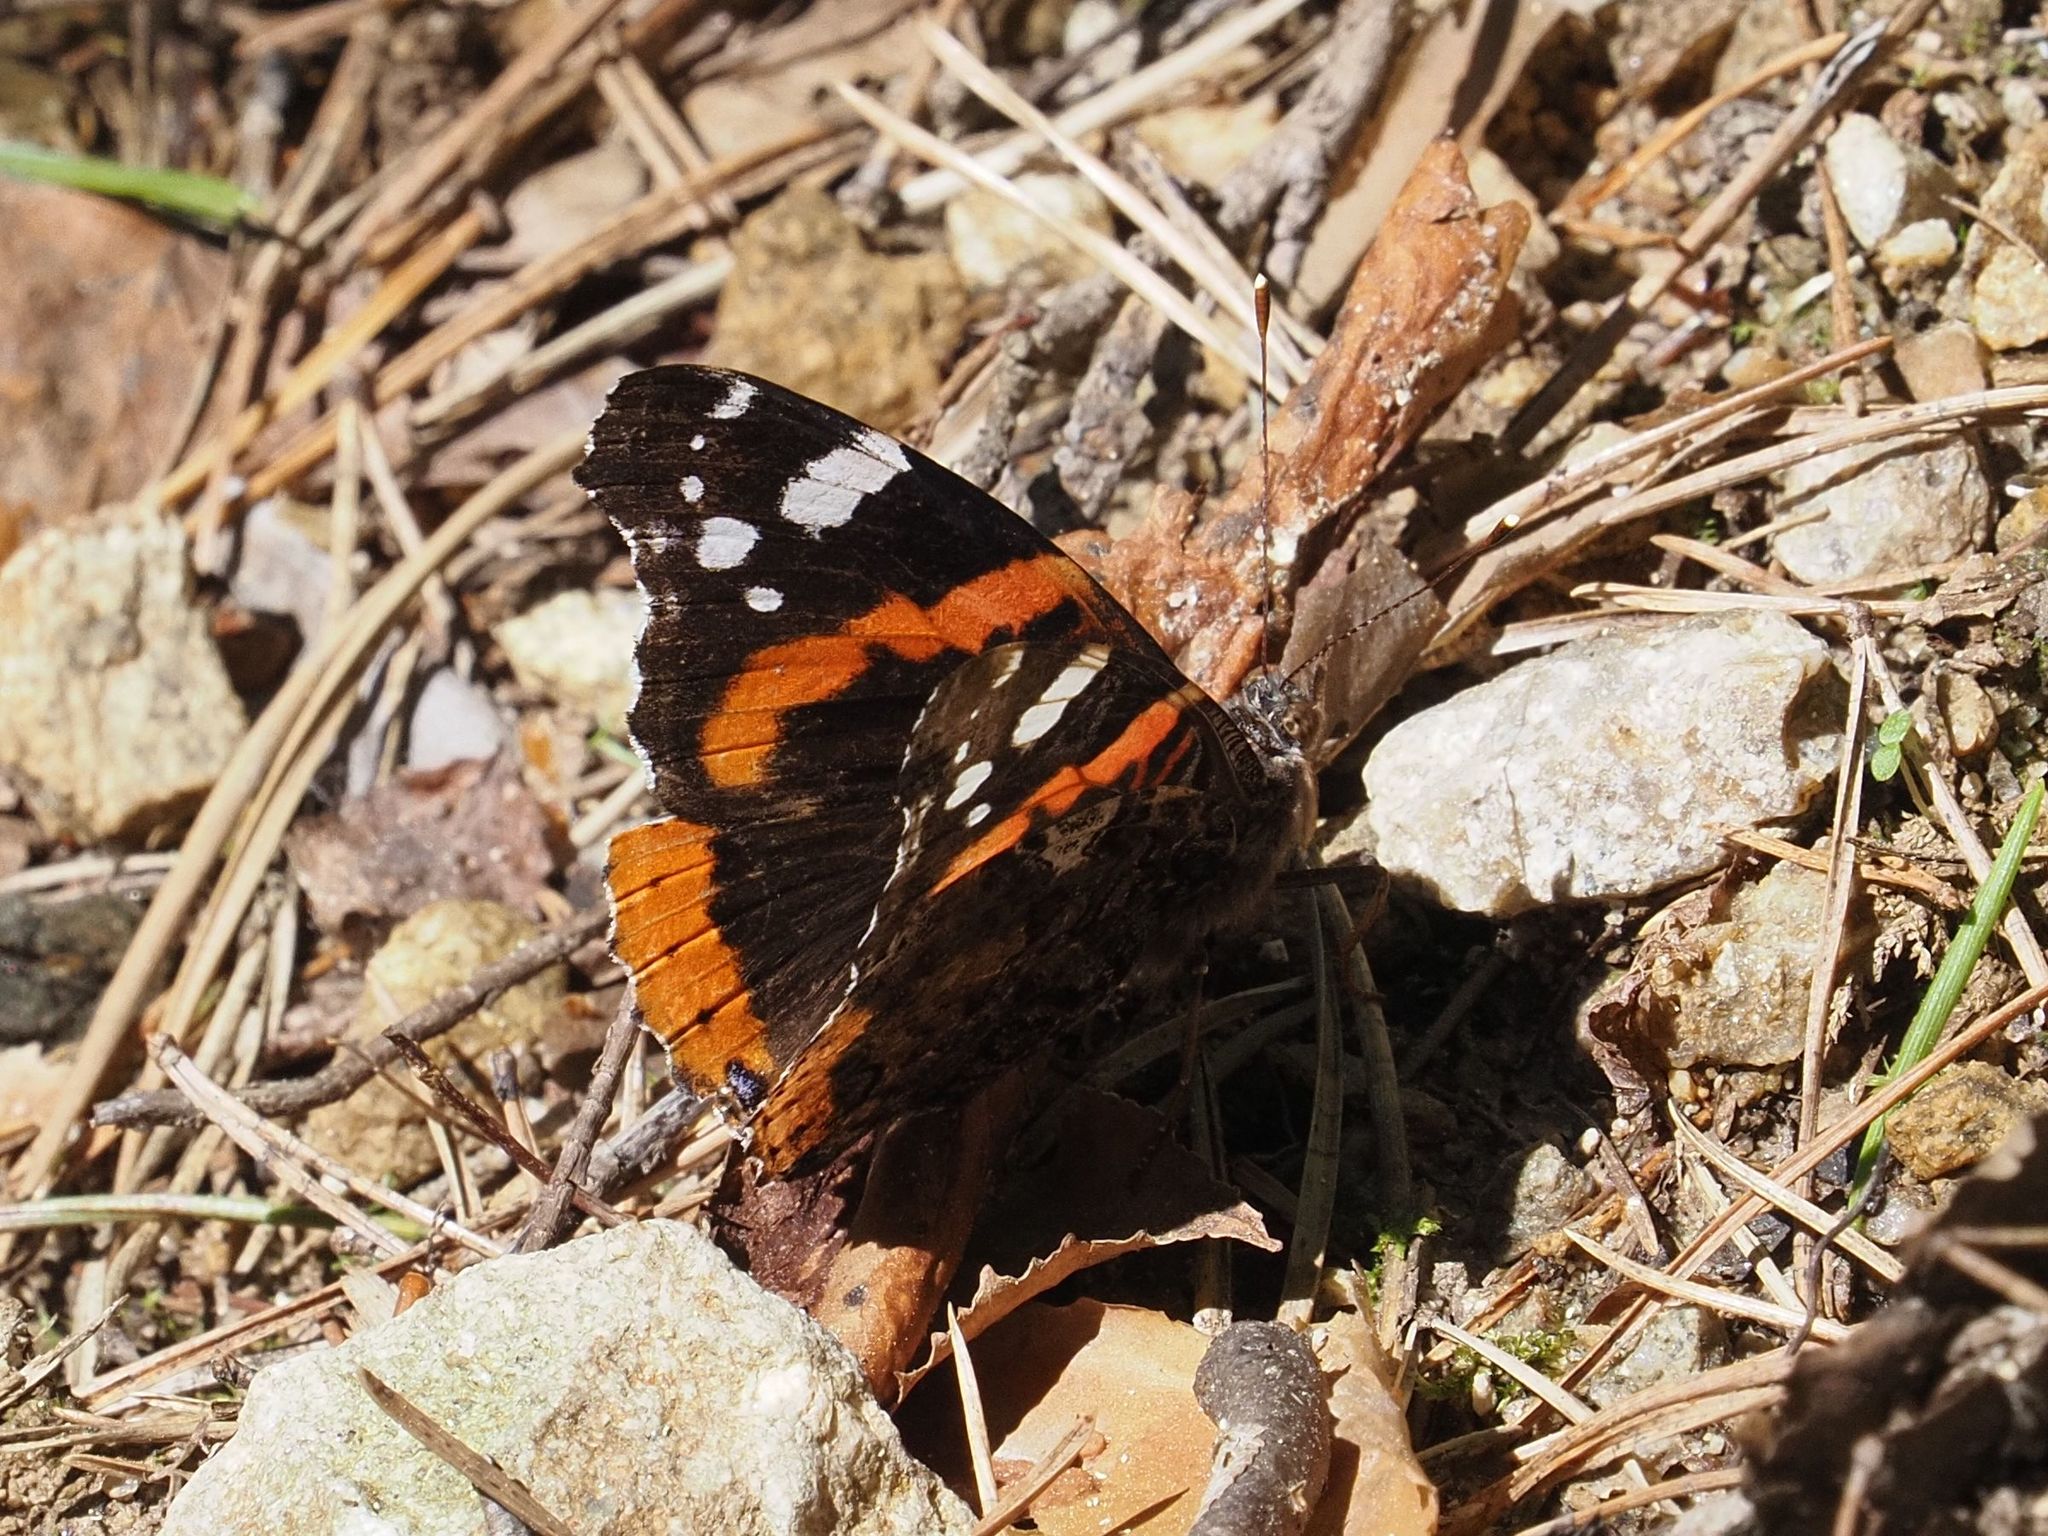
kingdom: Animalia
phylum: Arthropoda
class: Insecta
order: Lepidoptera
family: Nymphalidae
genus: Vanessa
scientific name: Vanessa atalanta
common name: Red admiral
